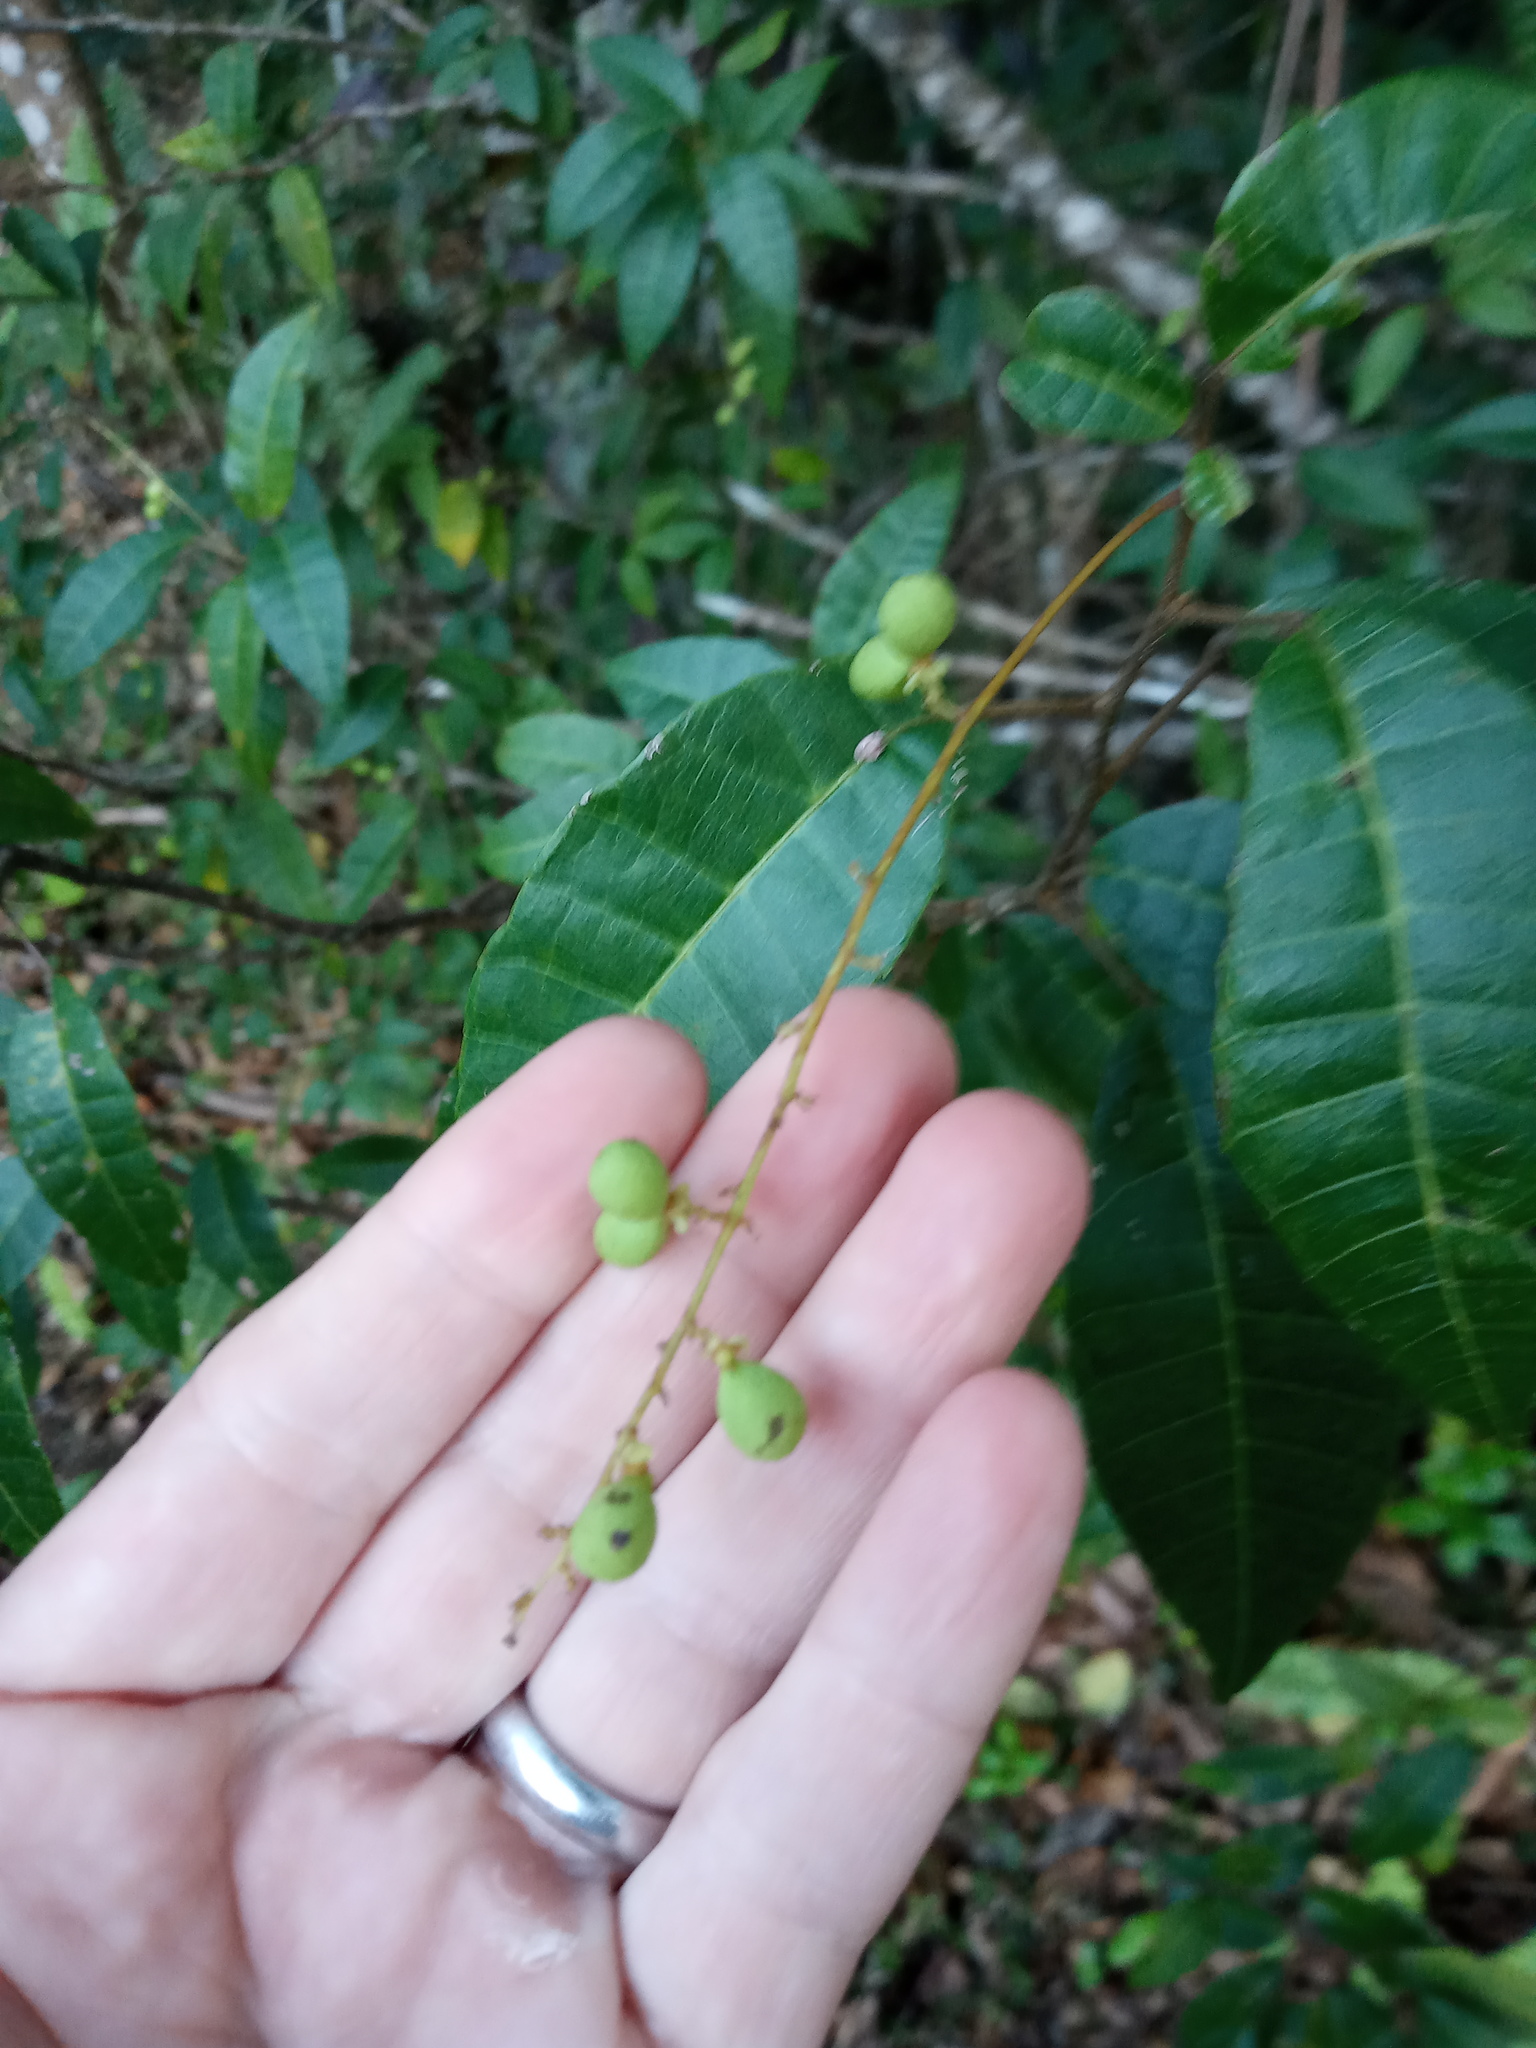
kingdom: Plantae
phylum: Tracheophyta
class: Magnoliopsida
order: Sapindales
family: Sapindaceae
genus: Allophylus
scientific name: Allophylus crassinervis
